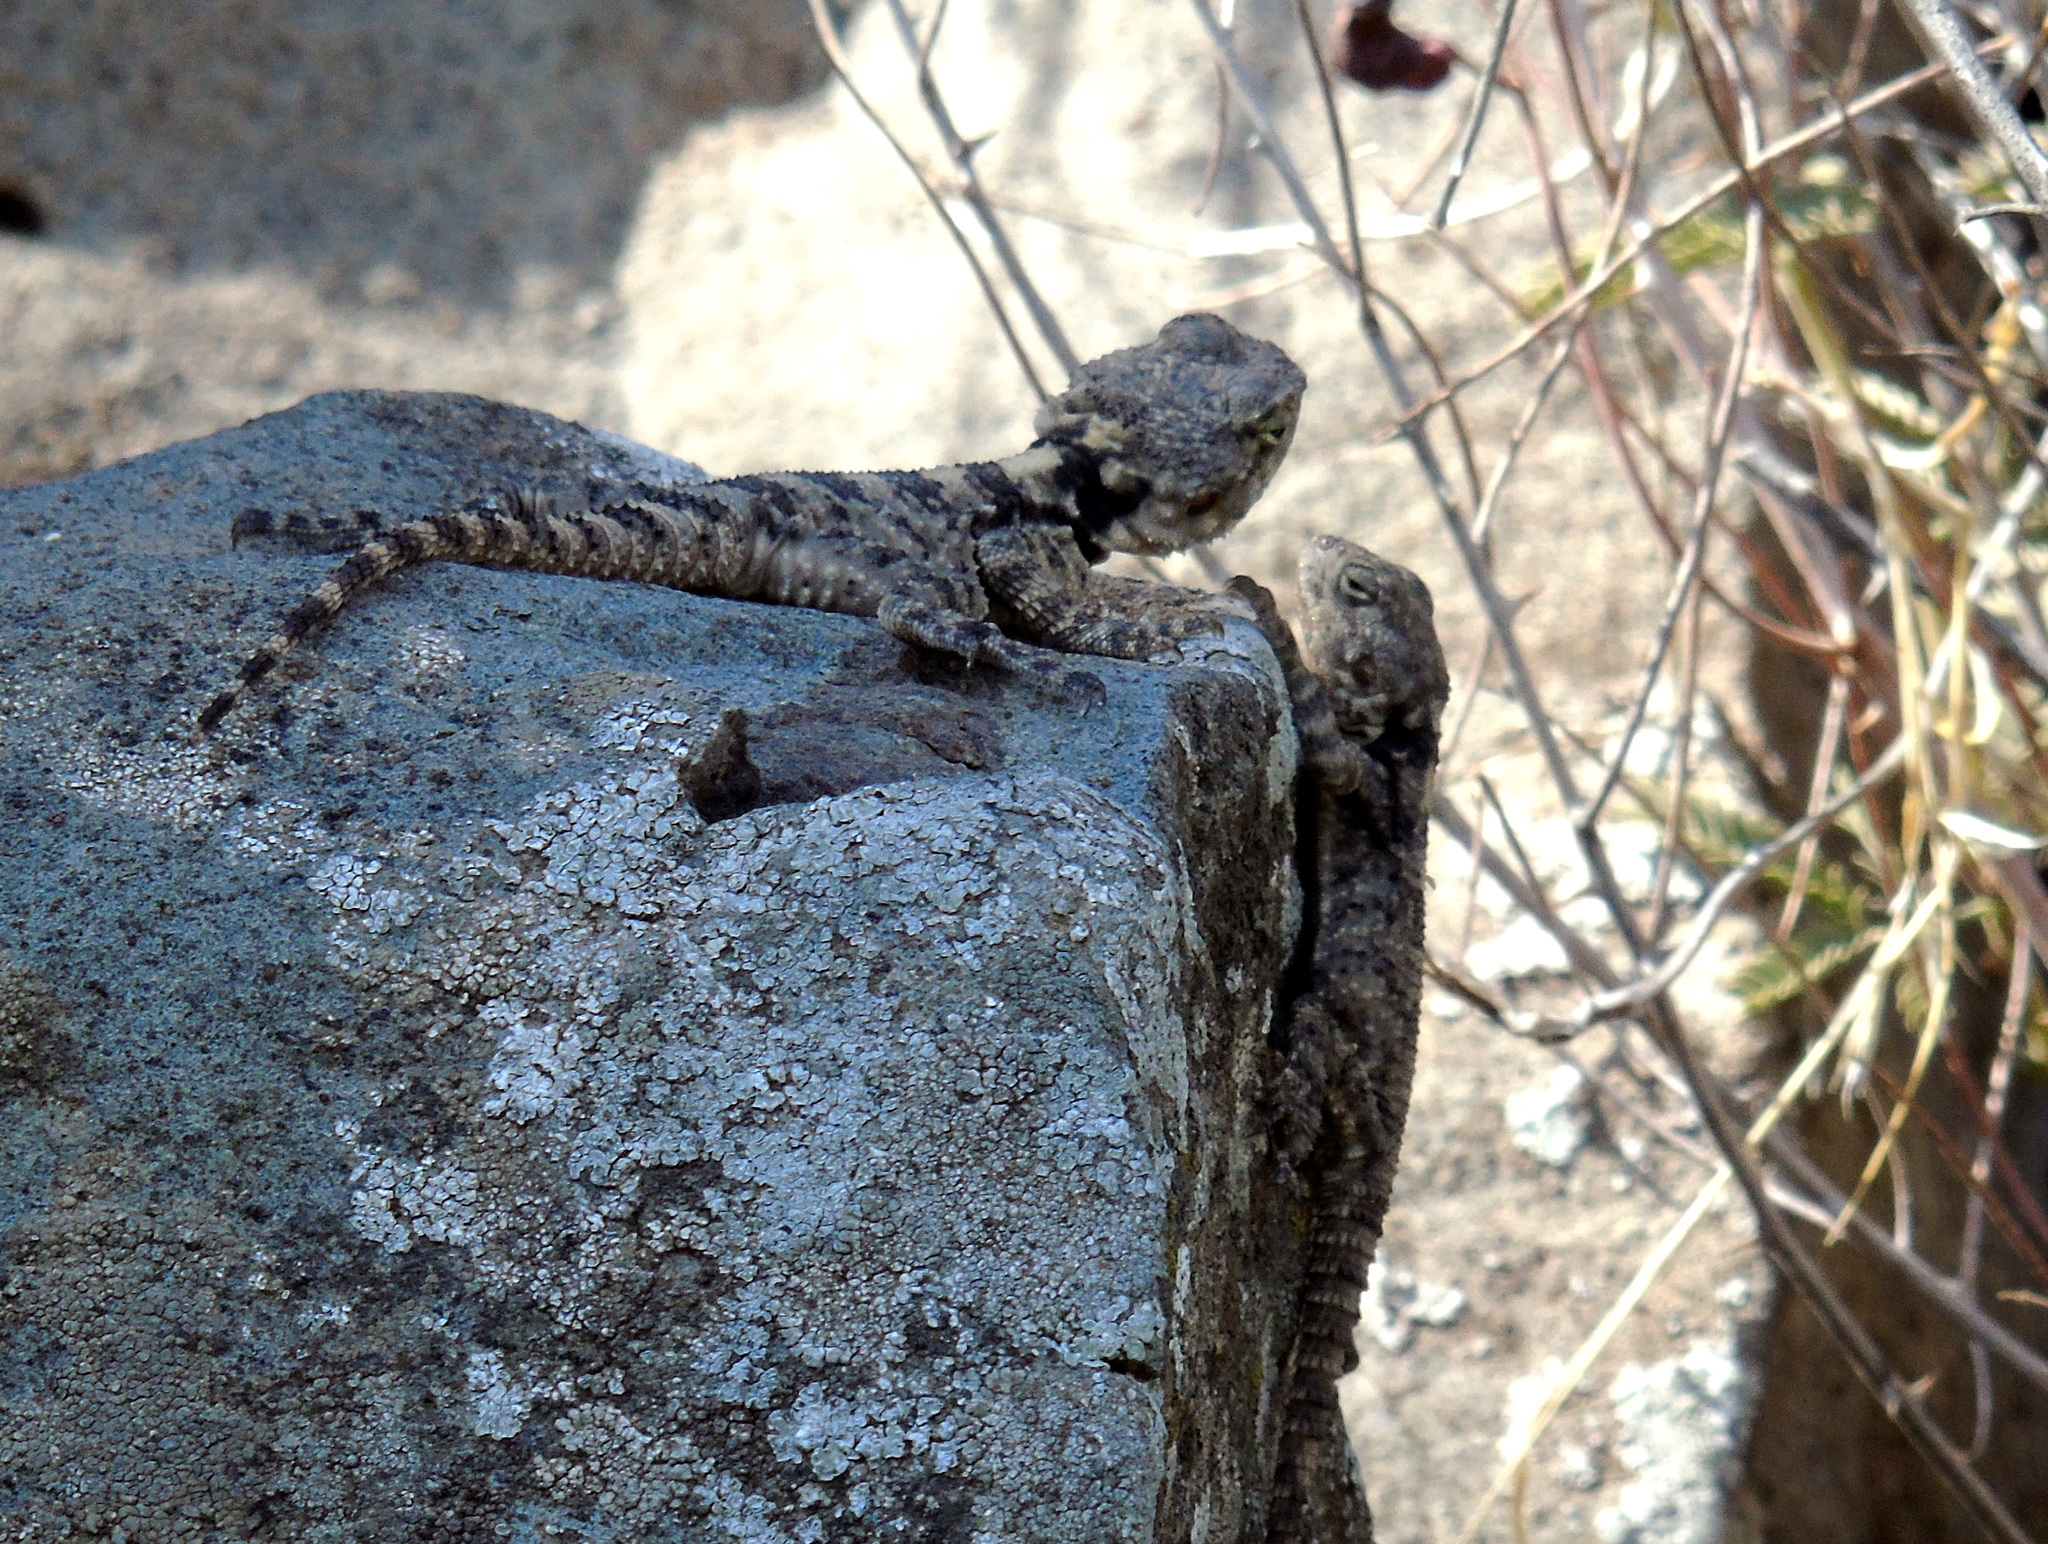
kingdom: Animalia
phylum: Chordata
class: Squamata
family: Agamidae
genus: Stellagama
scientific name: Stellagama stellio
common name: Starred agama
